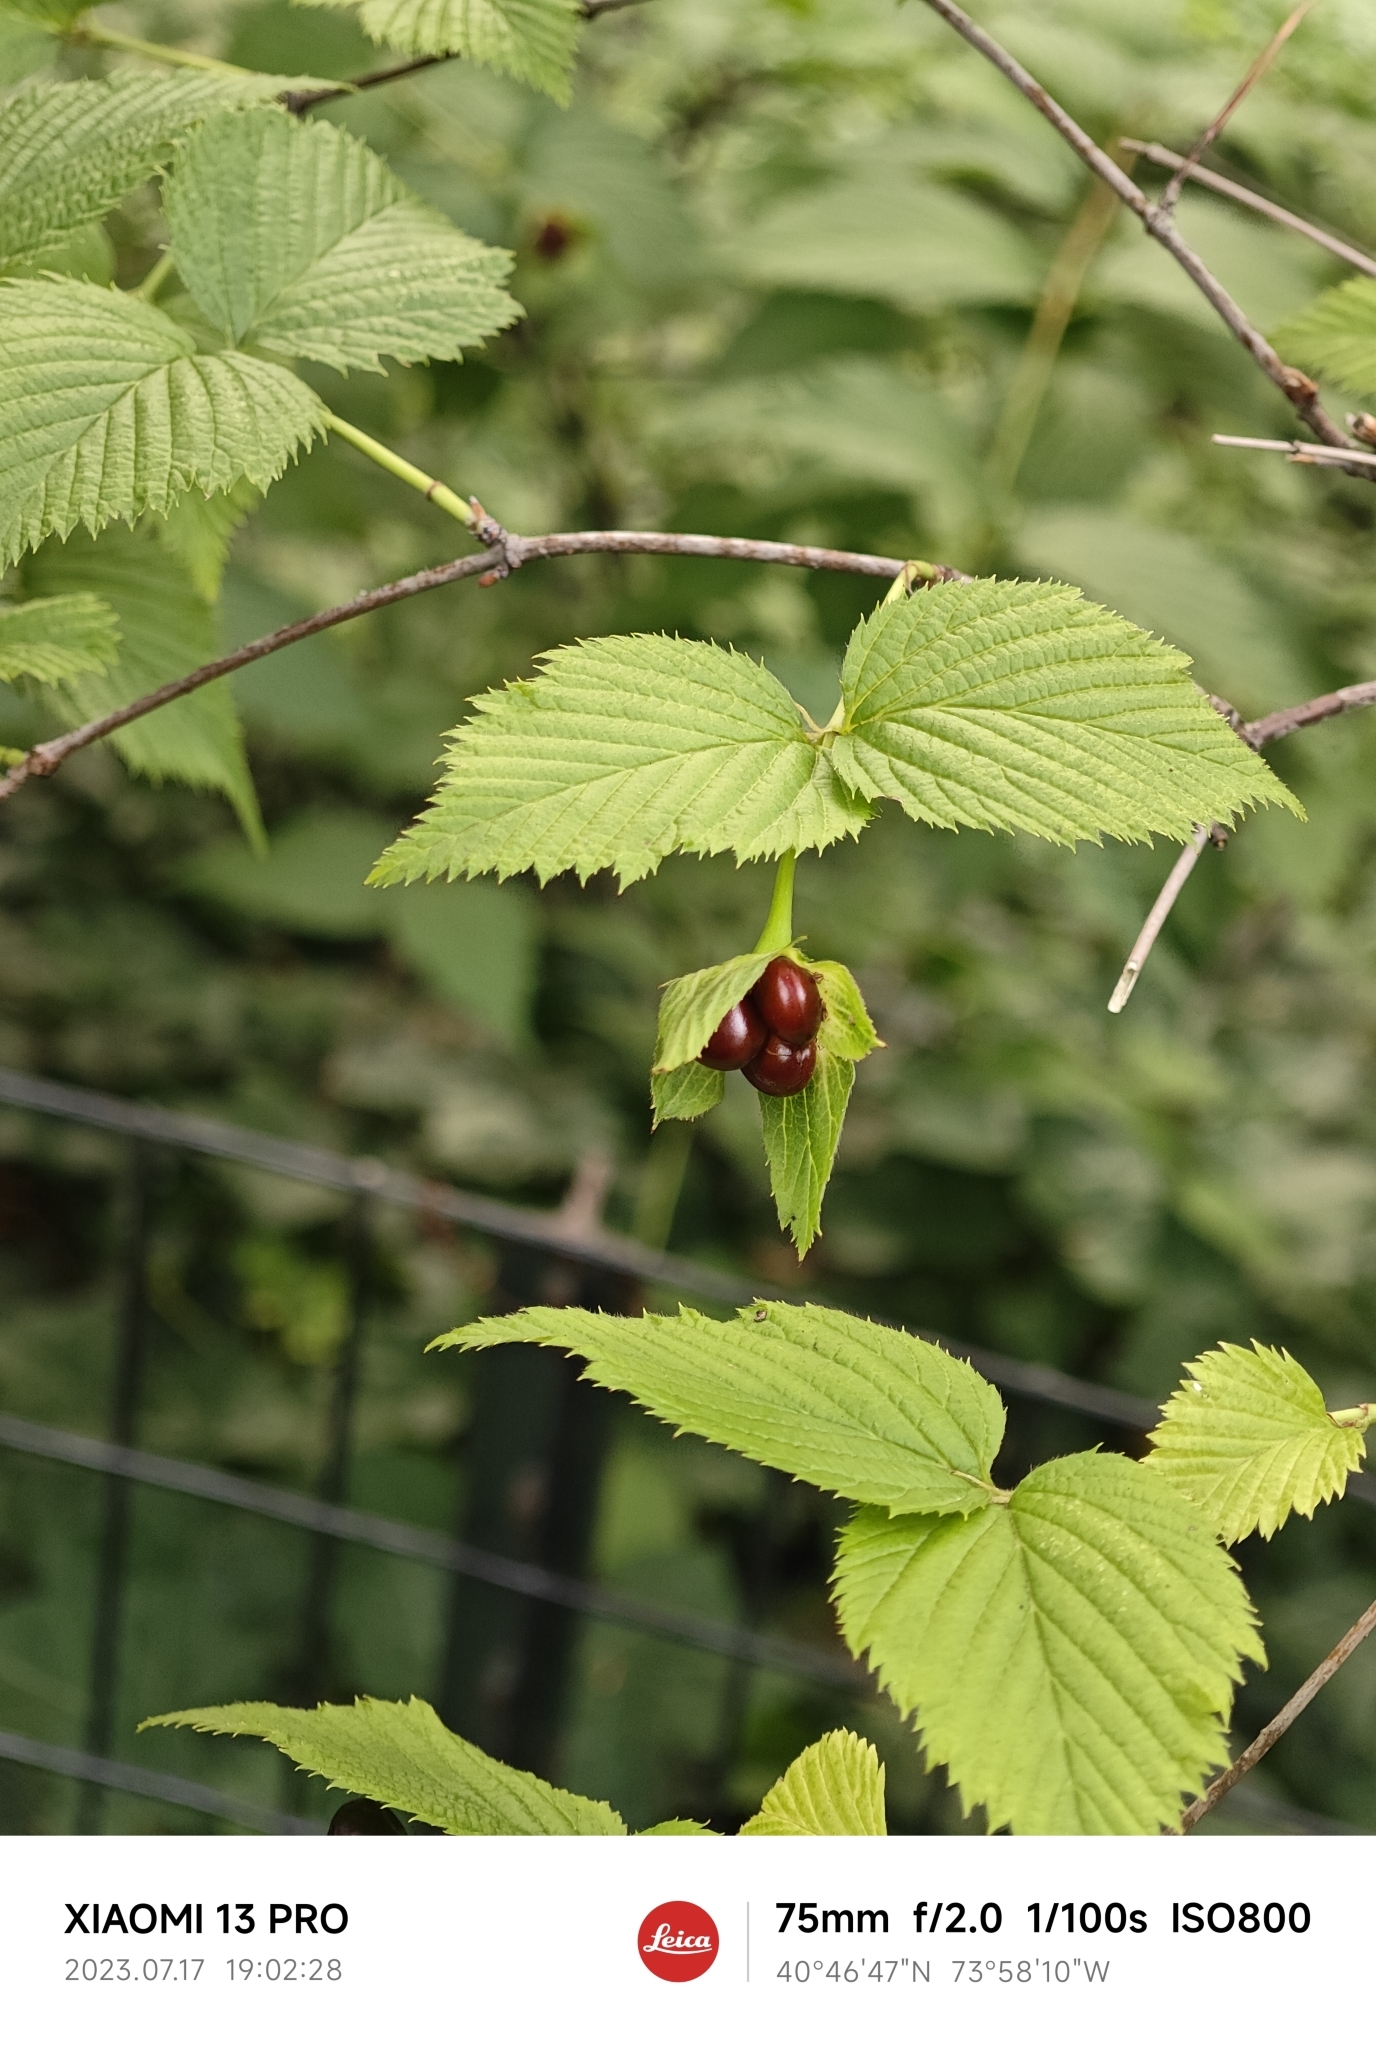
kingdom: Plantae
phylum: Tracheophyta
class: Magnoliopsida
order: Rosales
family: Rosaceae
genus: Rhodotypos
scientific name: Rhodotypos scandens
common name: Jetbead
